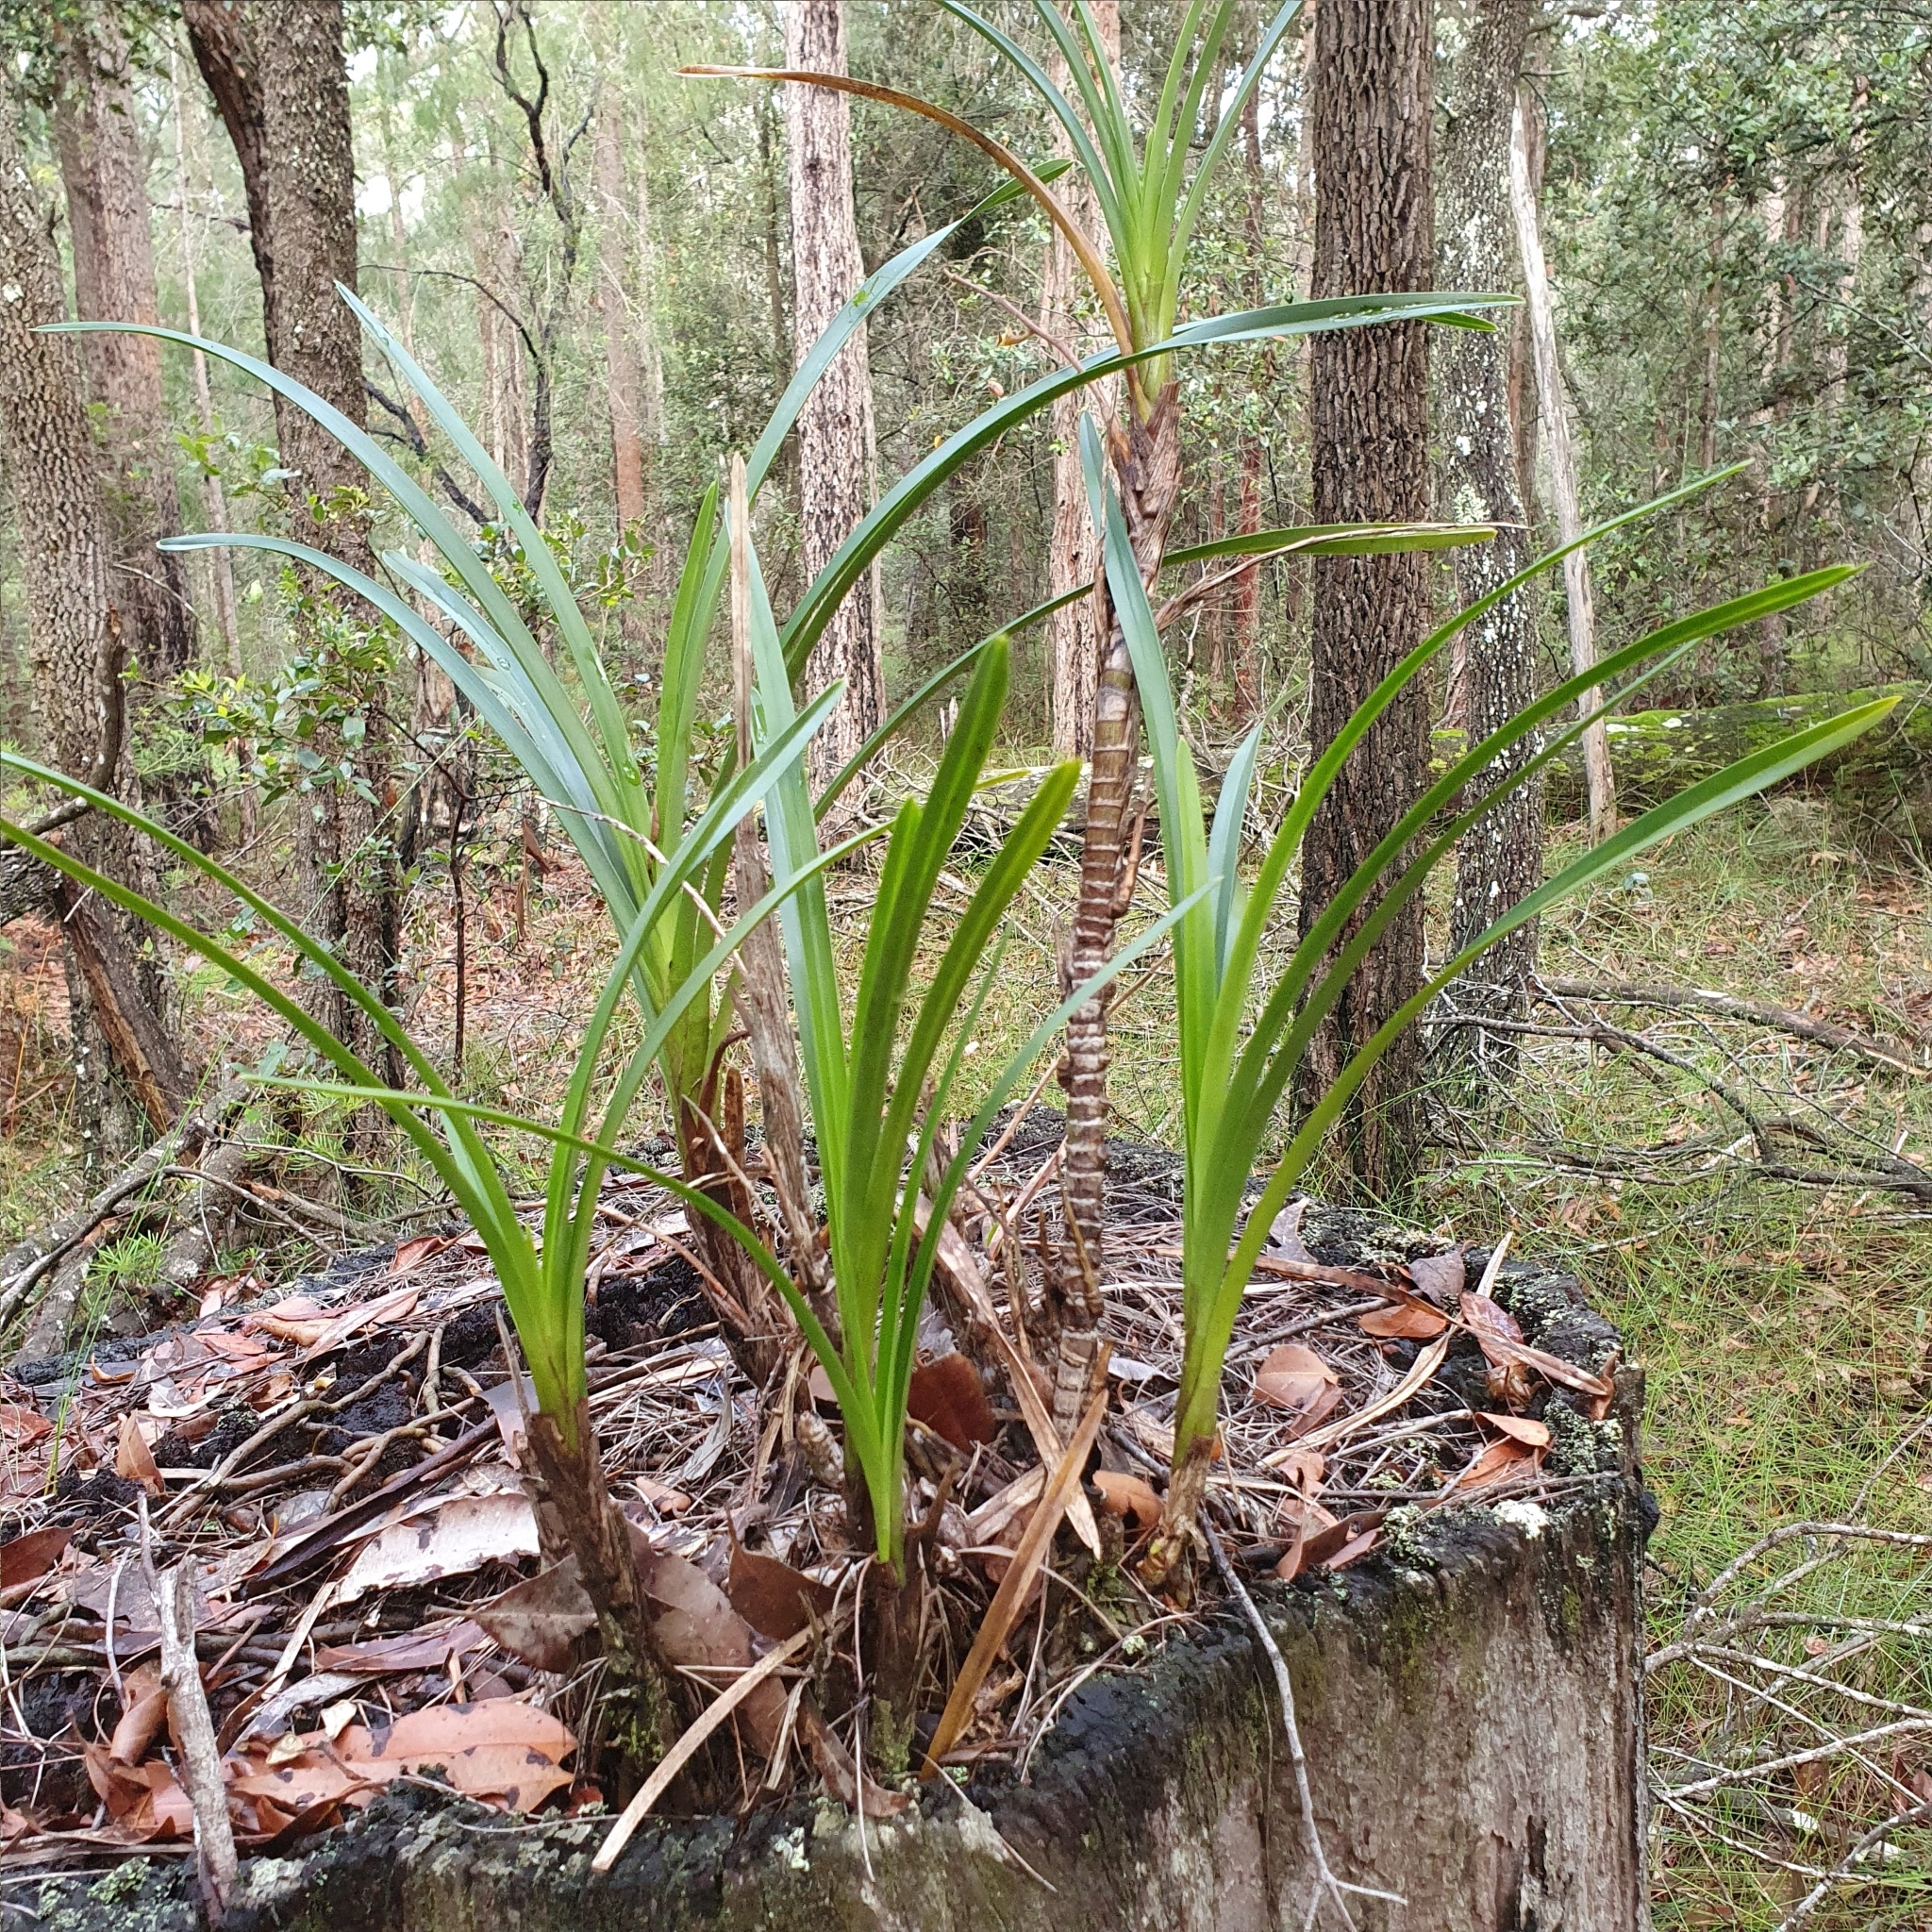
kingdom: Plantae
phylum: Tracheophyta
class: Liliopsida
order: Asparagales
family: Orchidaceae
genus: Cymbidium
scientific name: Cymbidium suave
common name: Snake orchid
